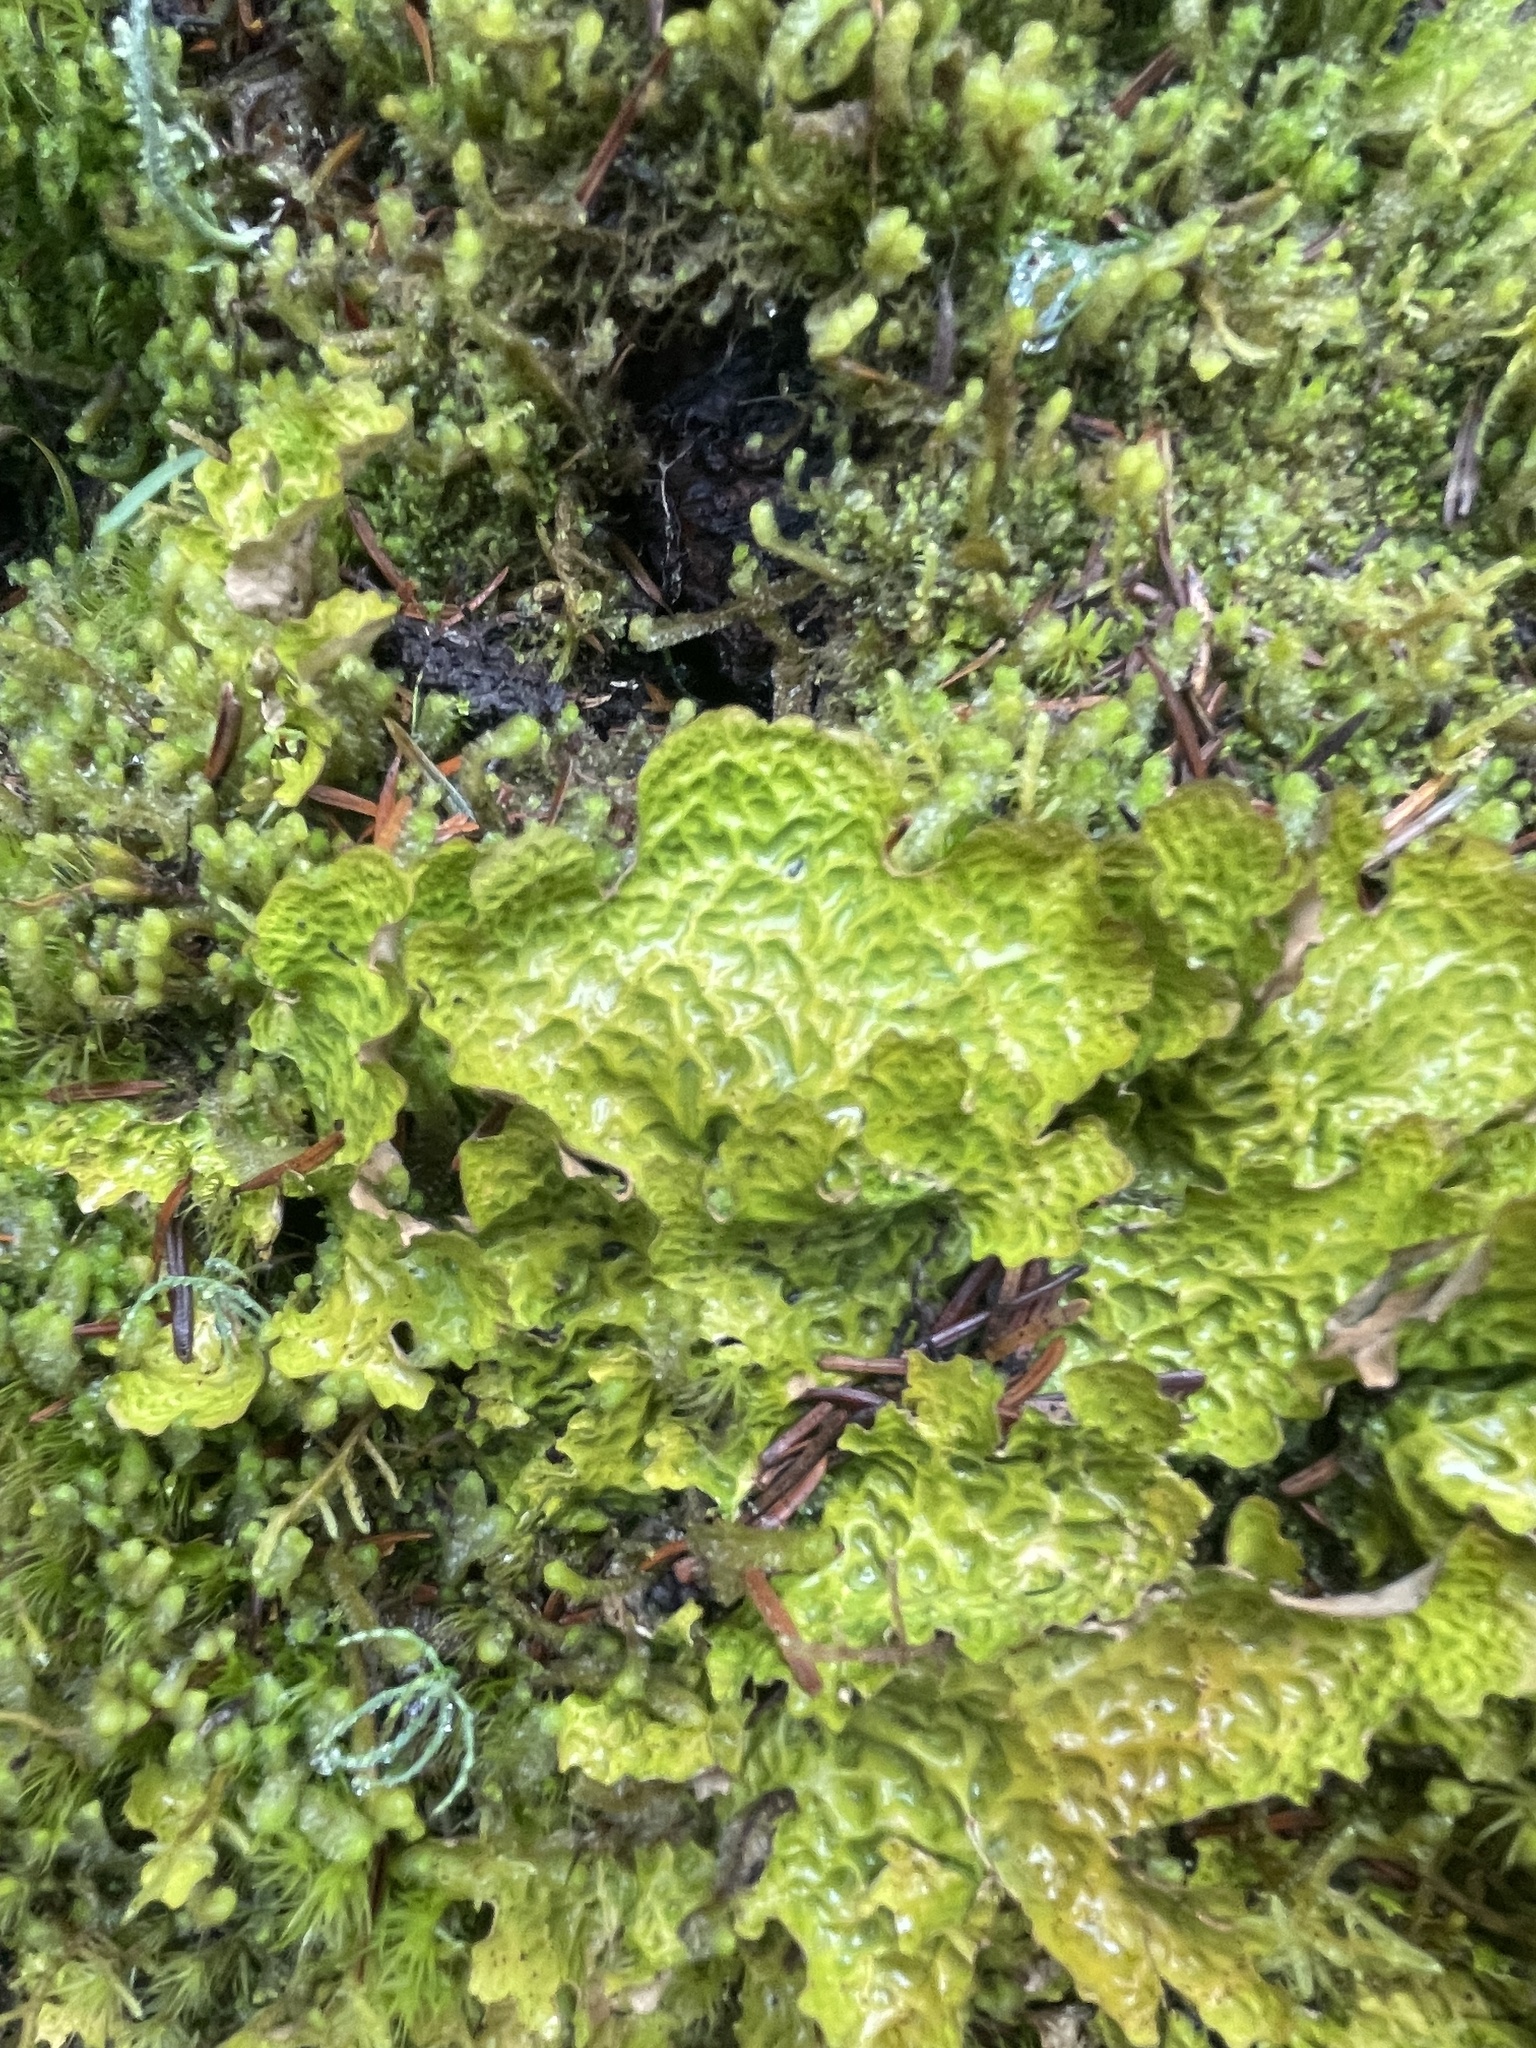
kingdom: Fungi
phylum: Ascomycota
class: Lecanoromycetes
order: Peltigerales
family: Lobariaceae
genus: Lobaria
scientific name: Lobaria linita
